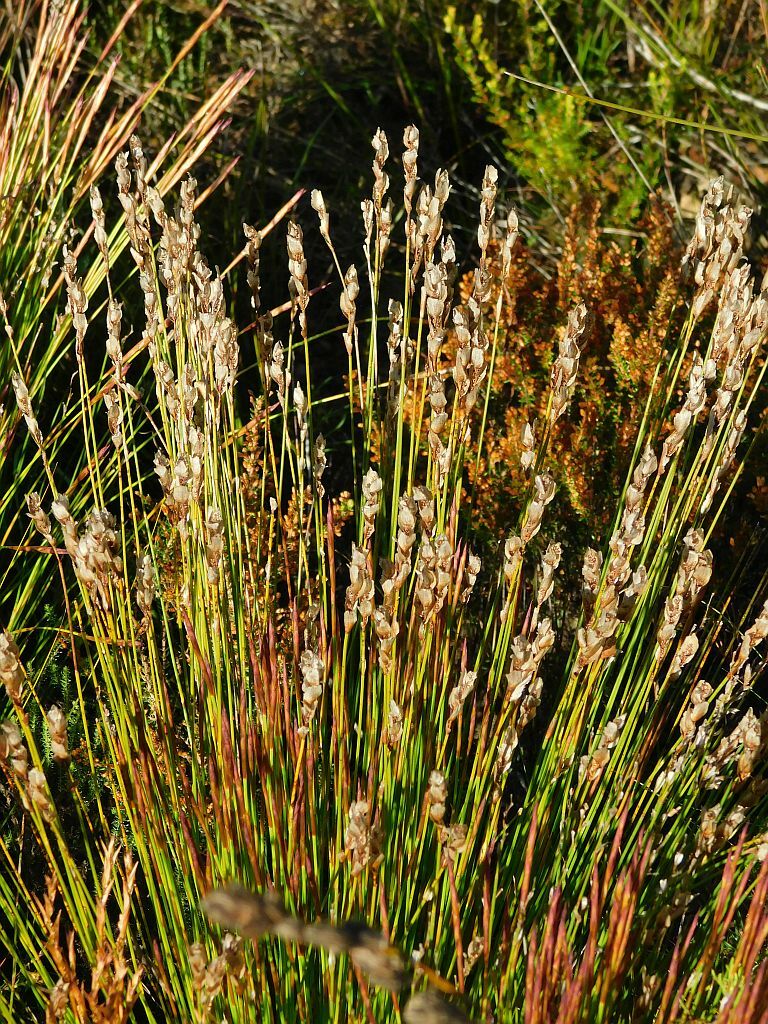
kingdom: Plantae
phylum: Tracheophyta
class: Liliopsida
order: Poales
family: Restionaceae
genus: Elegia
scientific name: Elegia filacea
